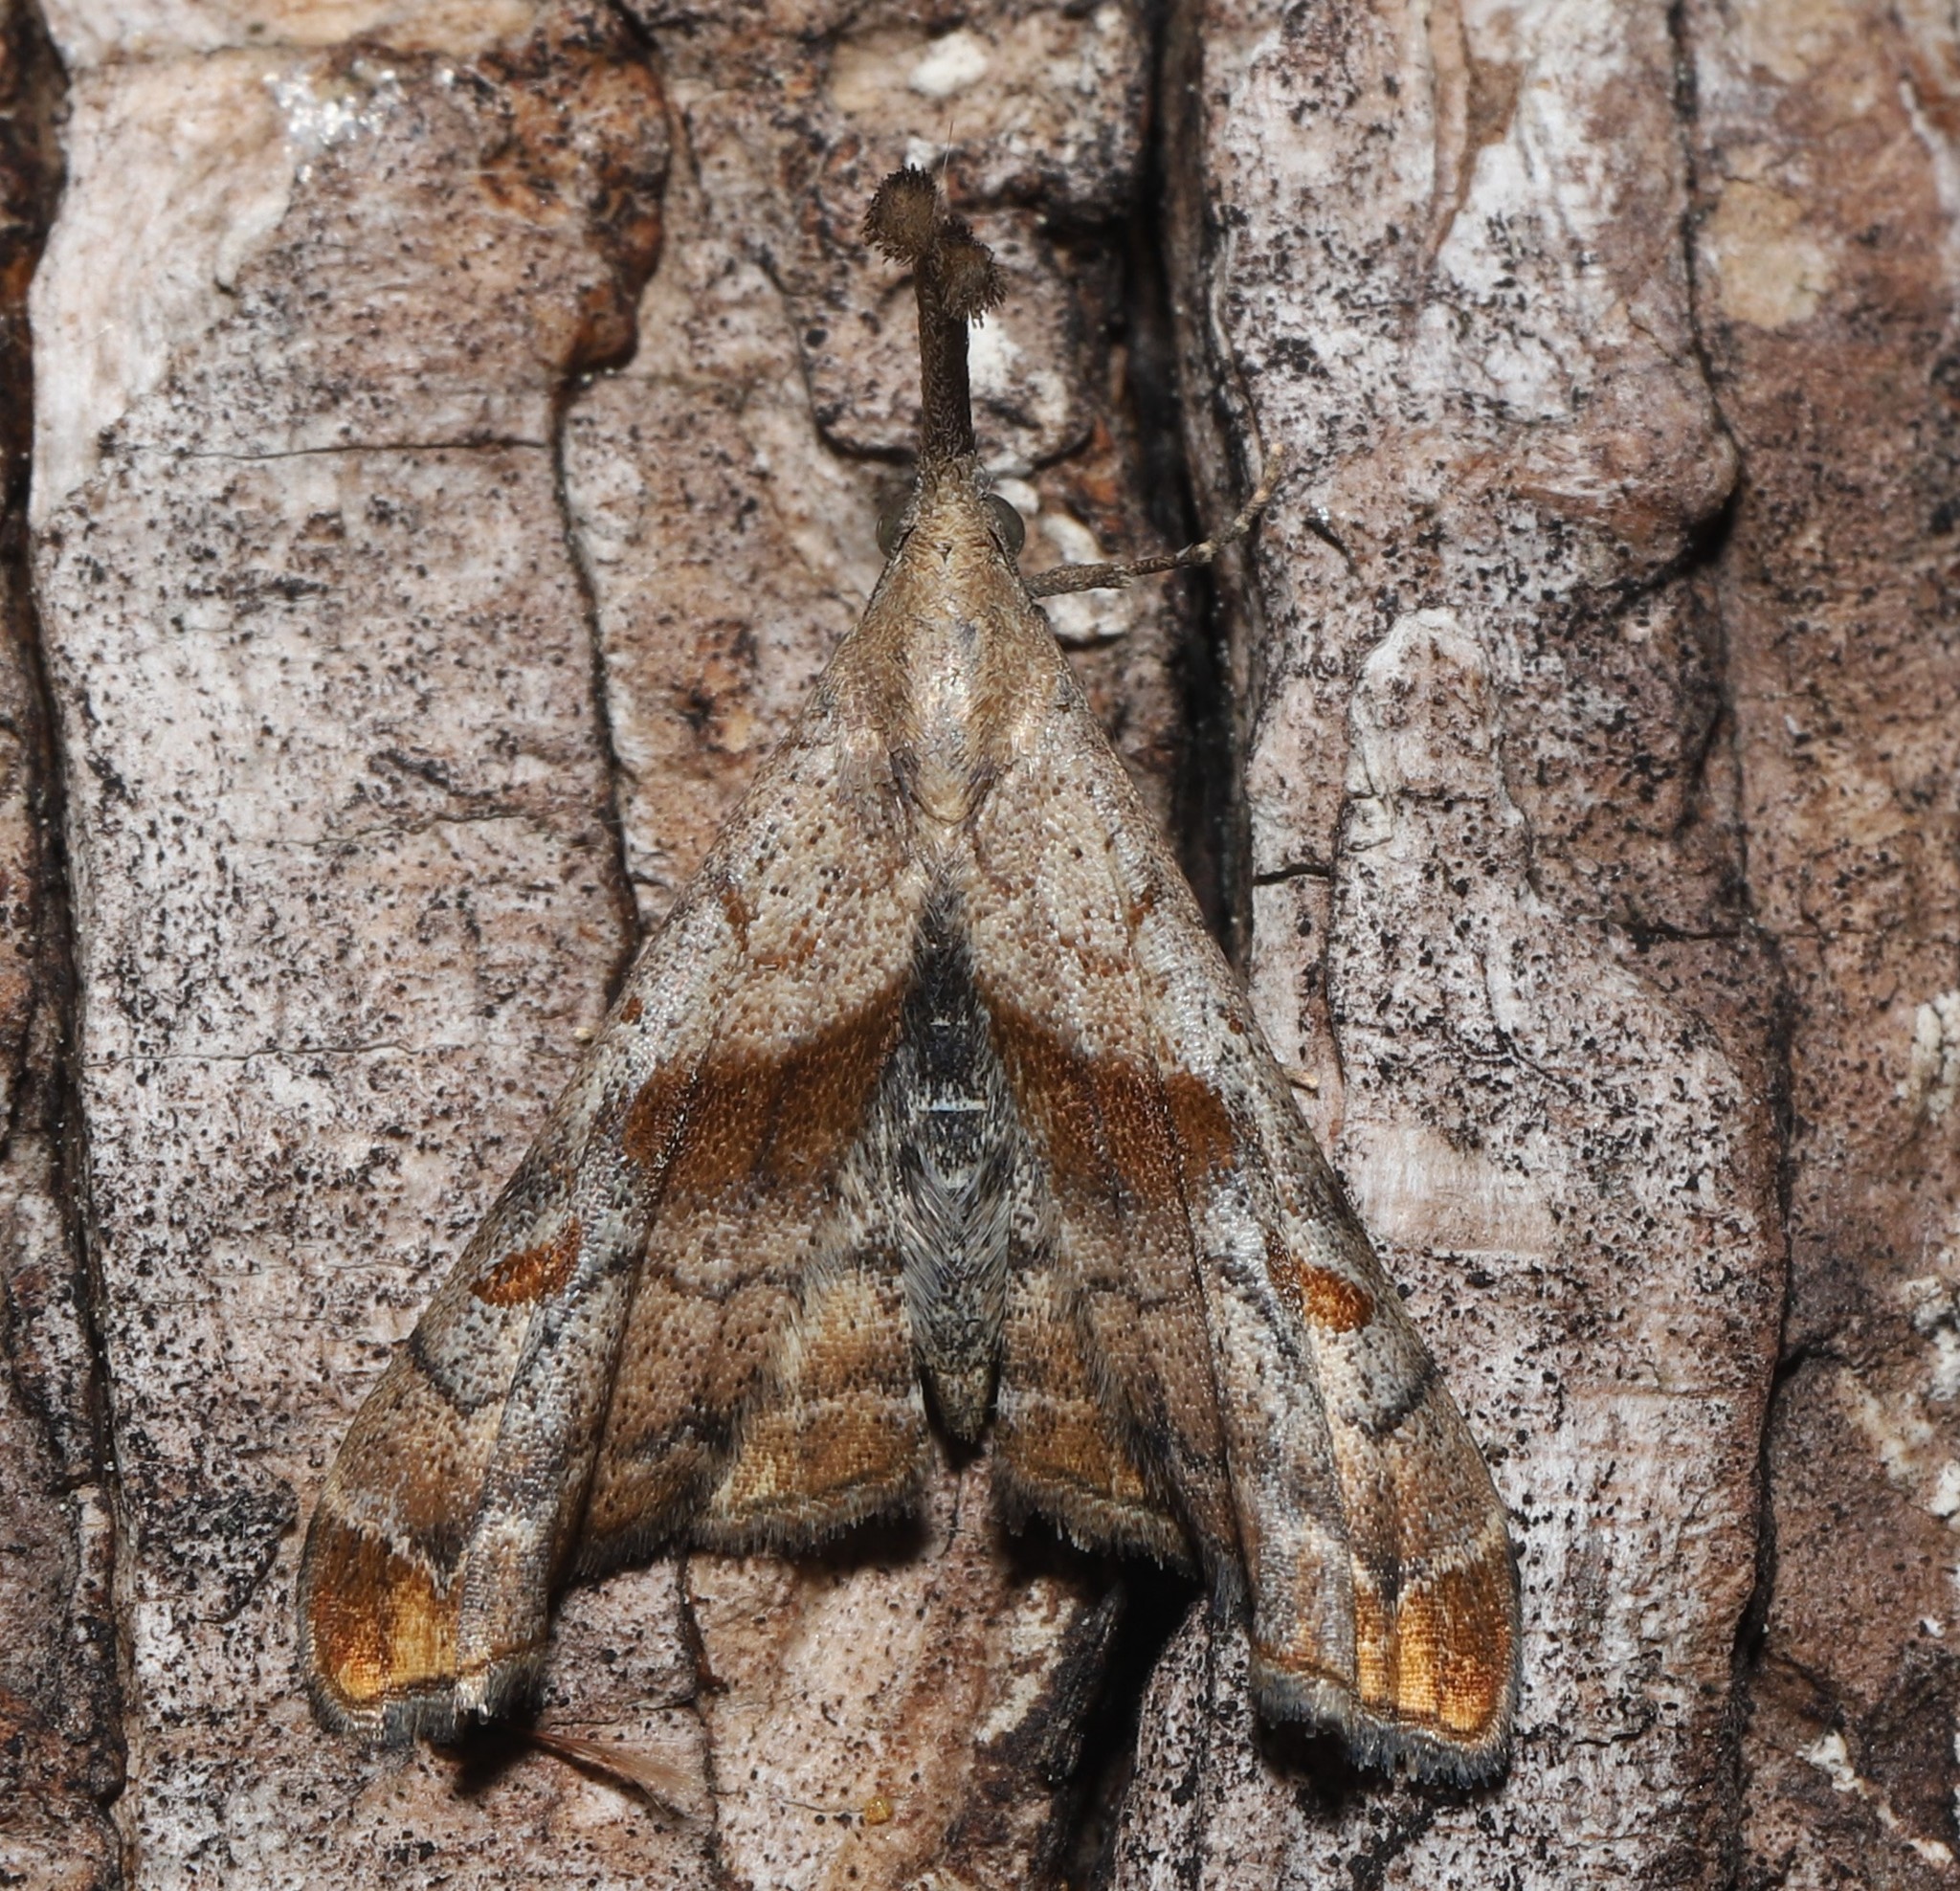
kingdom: Animalia
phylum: Arthropoda
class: Insecta
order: Lepidoptera
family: Erebidae
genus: Palthis
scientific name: Palthis angulalis
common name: Dark-spotted palthis moth
